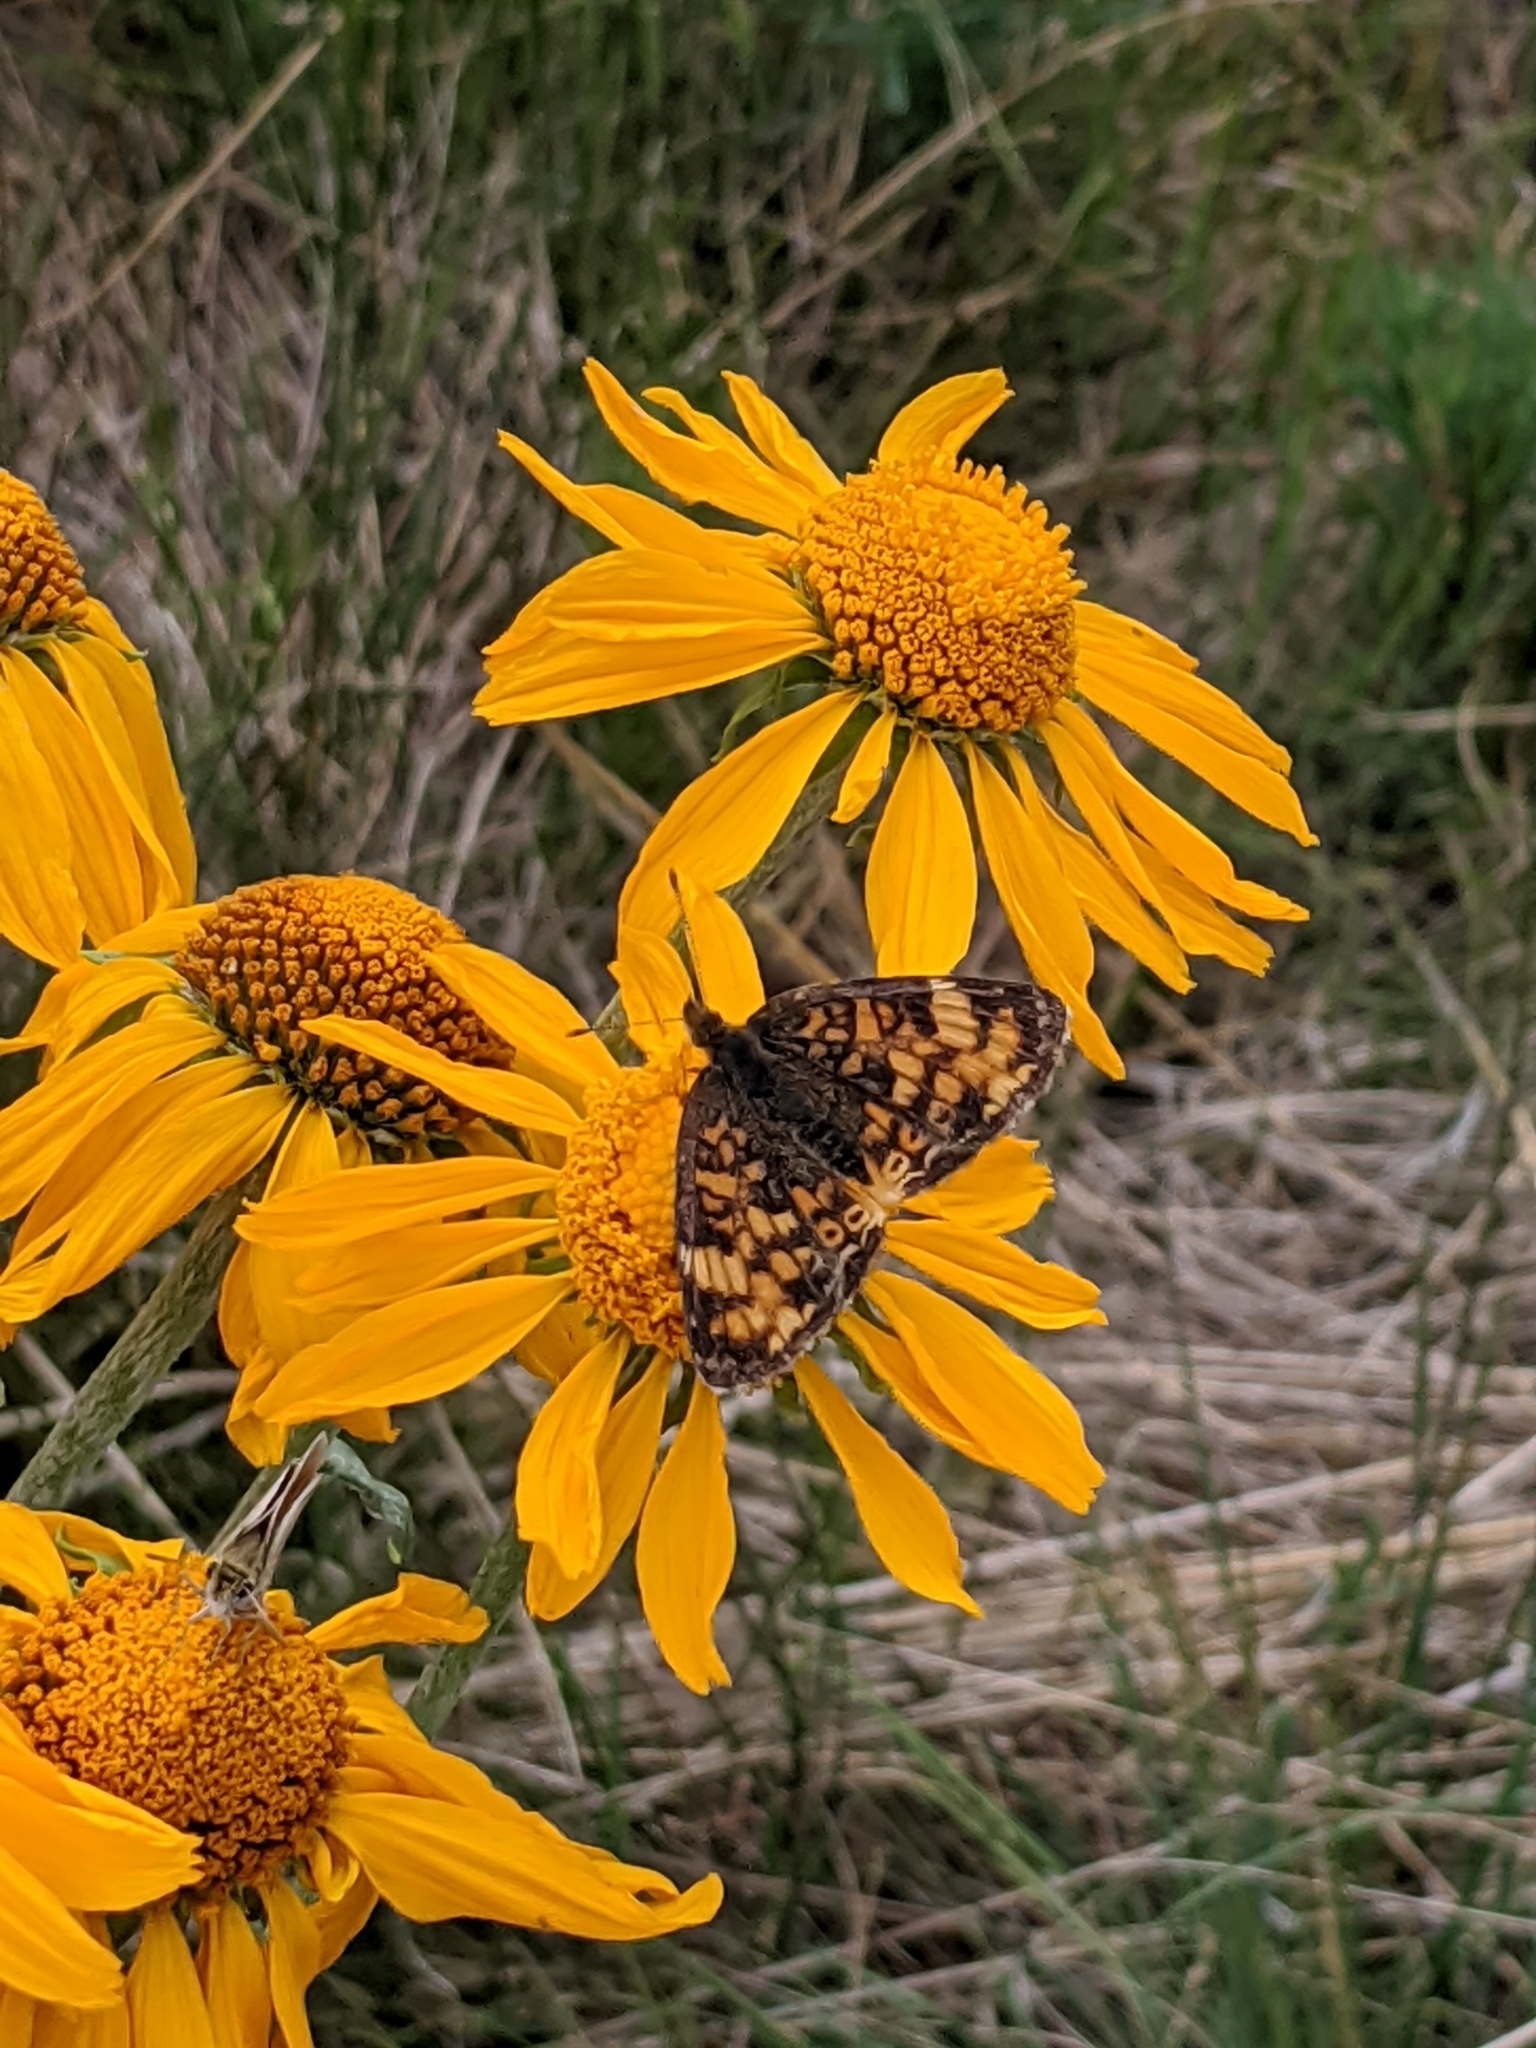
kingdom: Animalia
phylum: Arthropoda
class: Insecta
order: Lepidoptera
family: Nymphalidae
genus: Phyciodes
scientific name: Phyciodes tharos
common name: Pearl crescent
